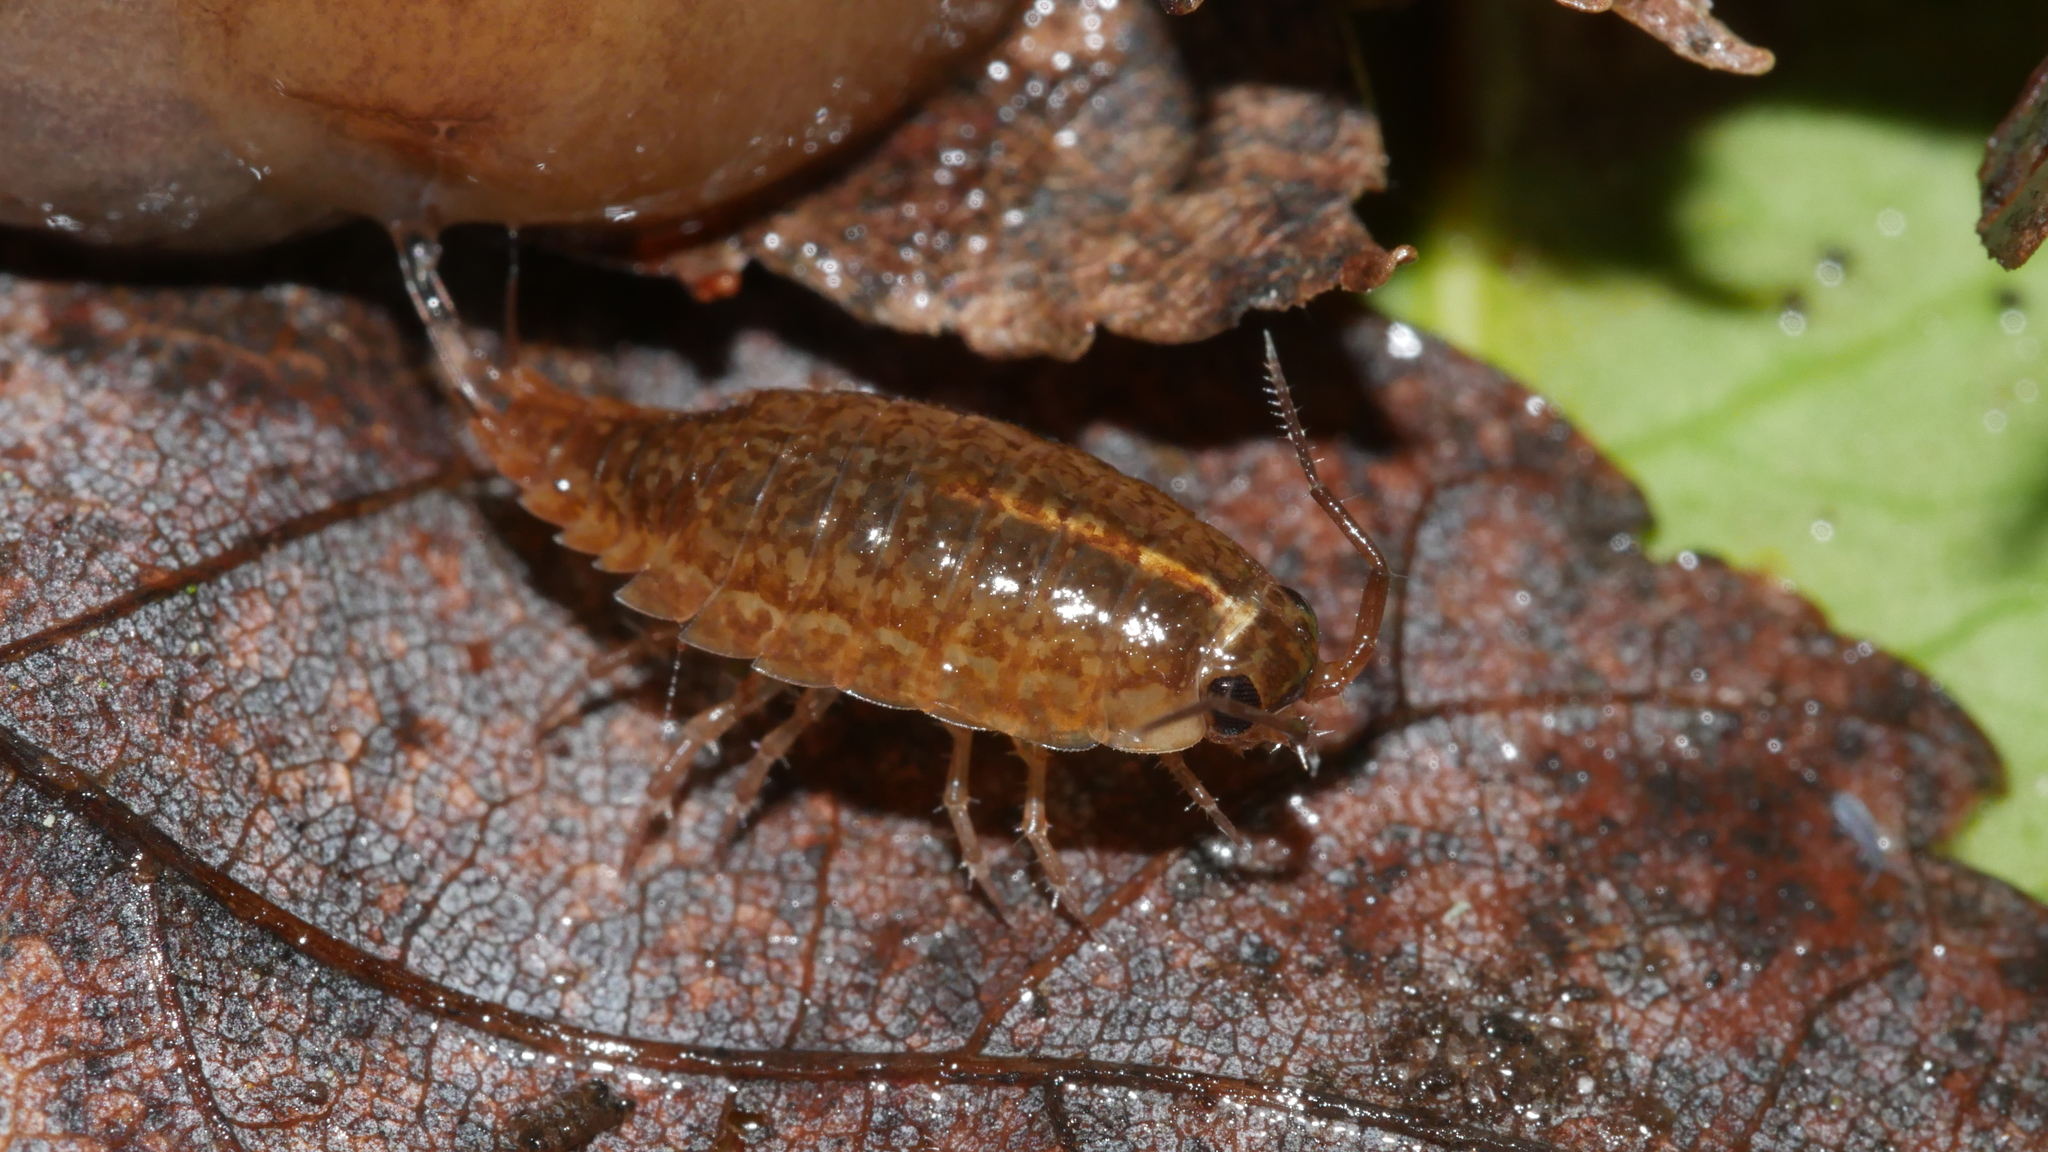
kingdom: Animalia
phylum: Arthropoda
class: Malacostraca
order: Isopoda
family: Ligiidae
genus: Ligidium
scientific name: Ligidium elrodii
